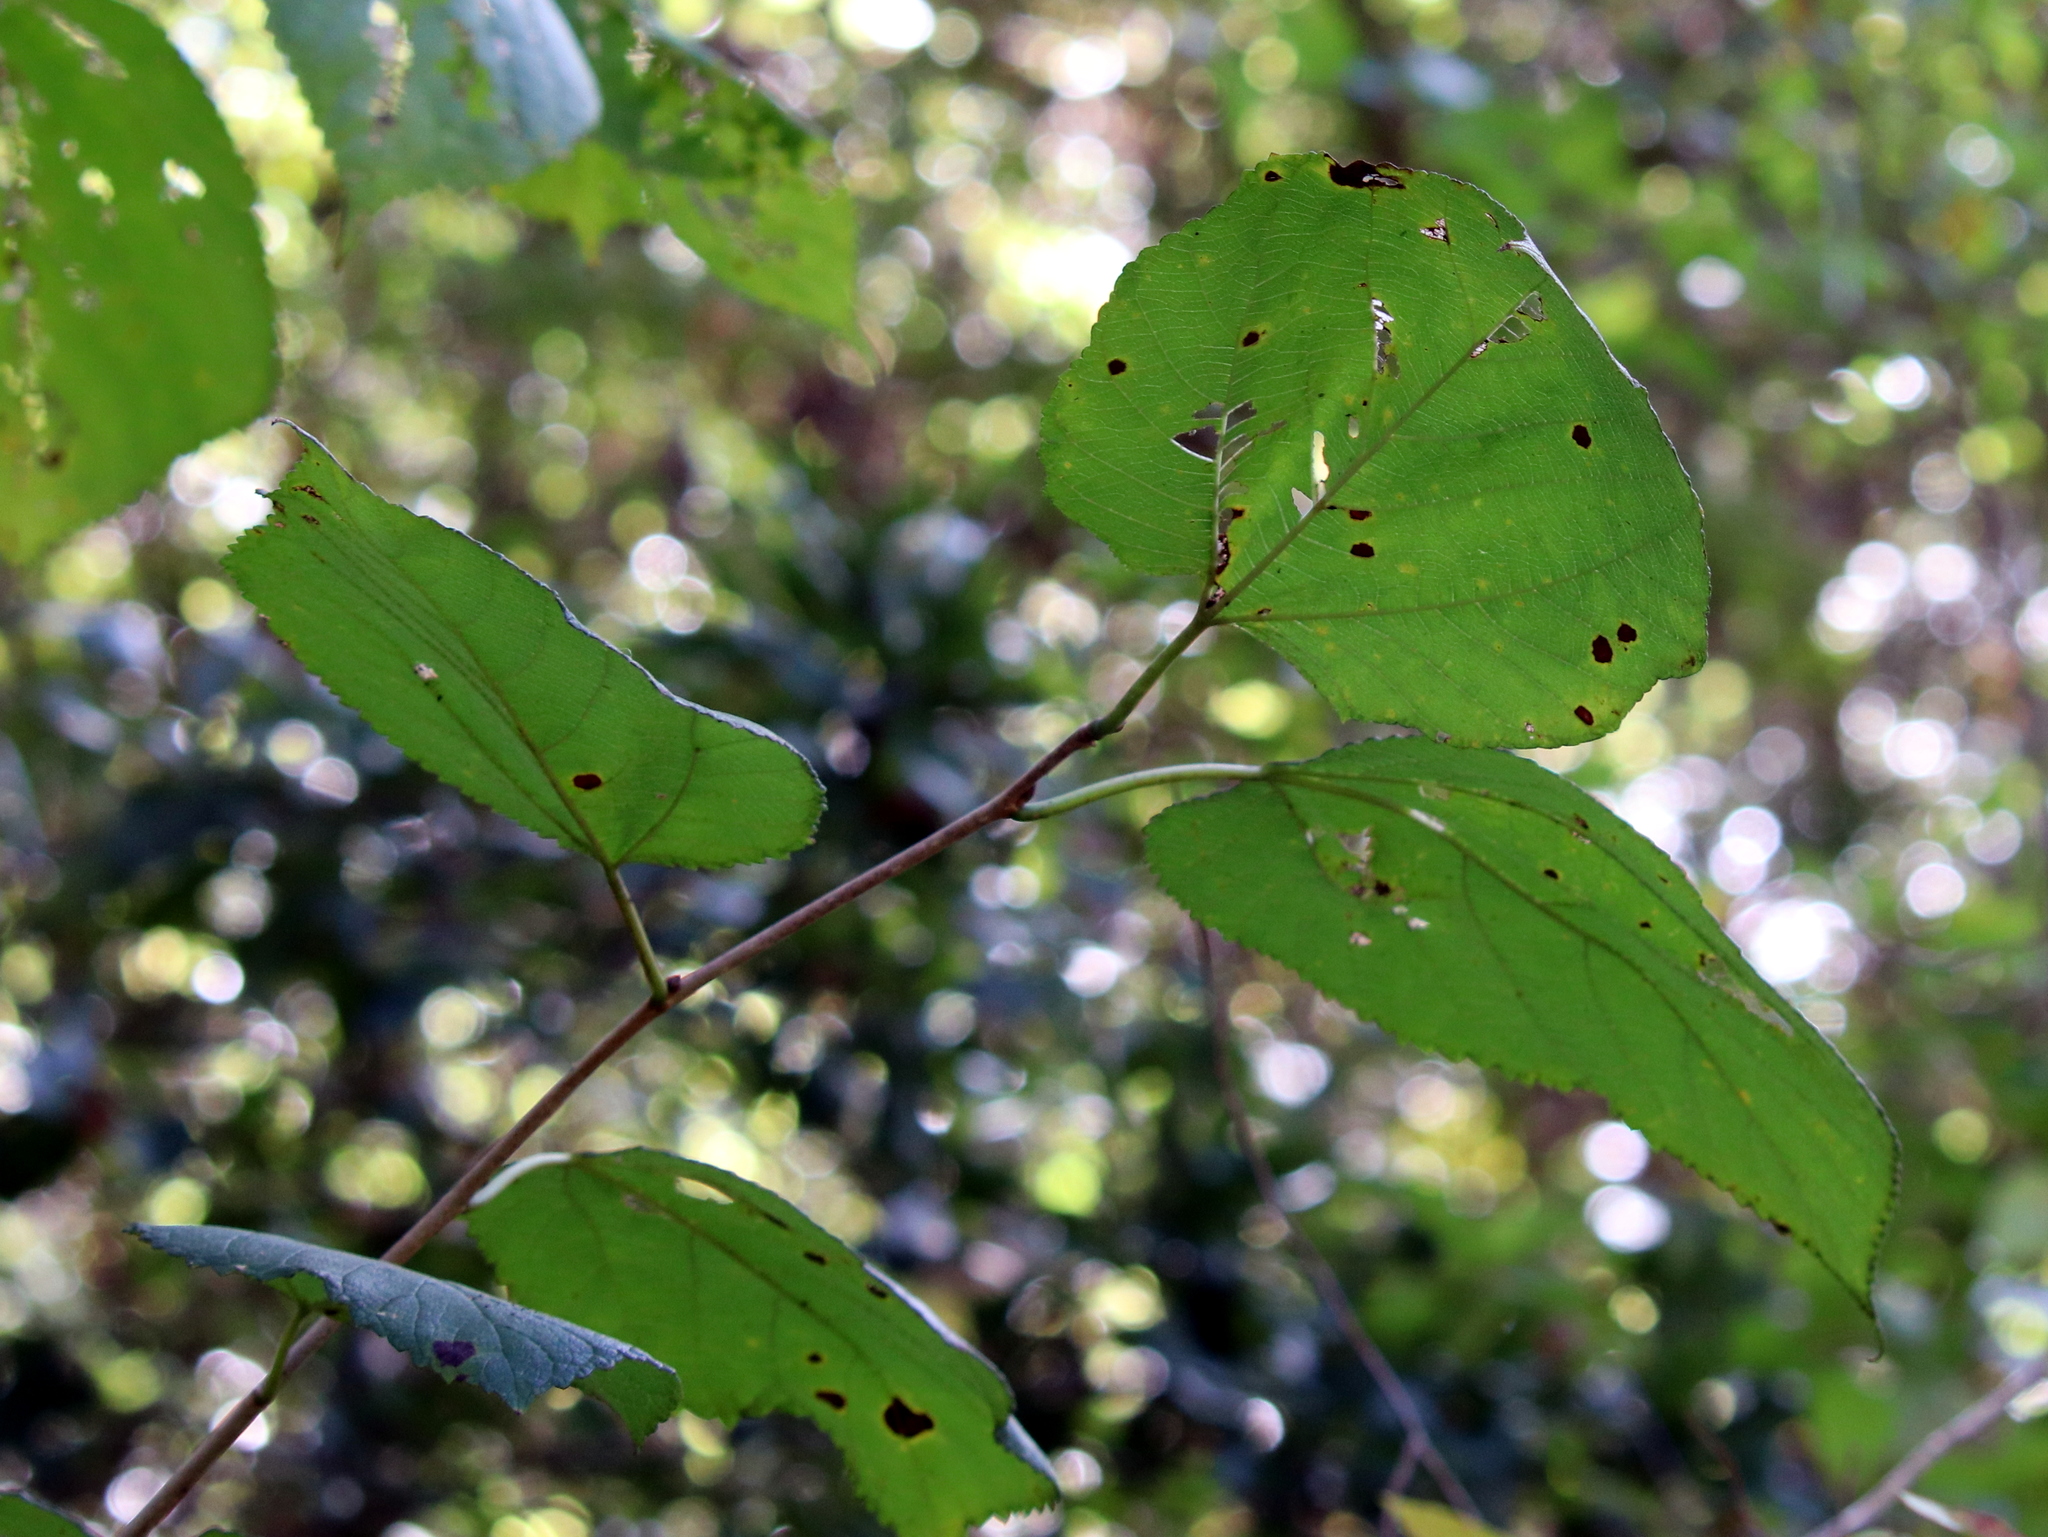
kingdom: Plantae
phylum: Tracheophyta
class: Magnoliopsida
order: Rosales
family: Moraceae
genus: Morus
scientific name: Morus rubra
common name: Red mulberry
